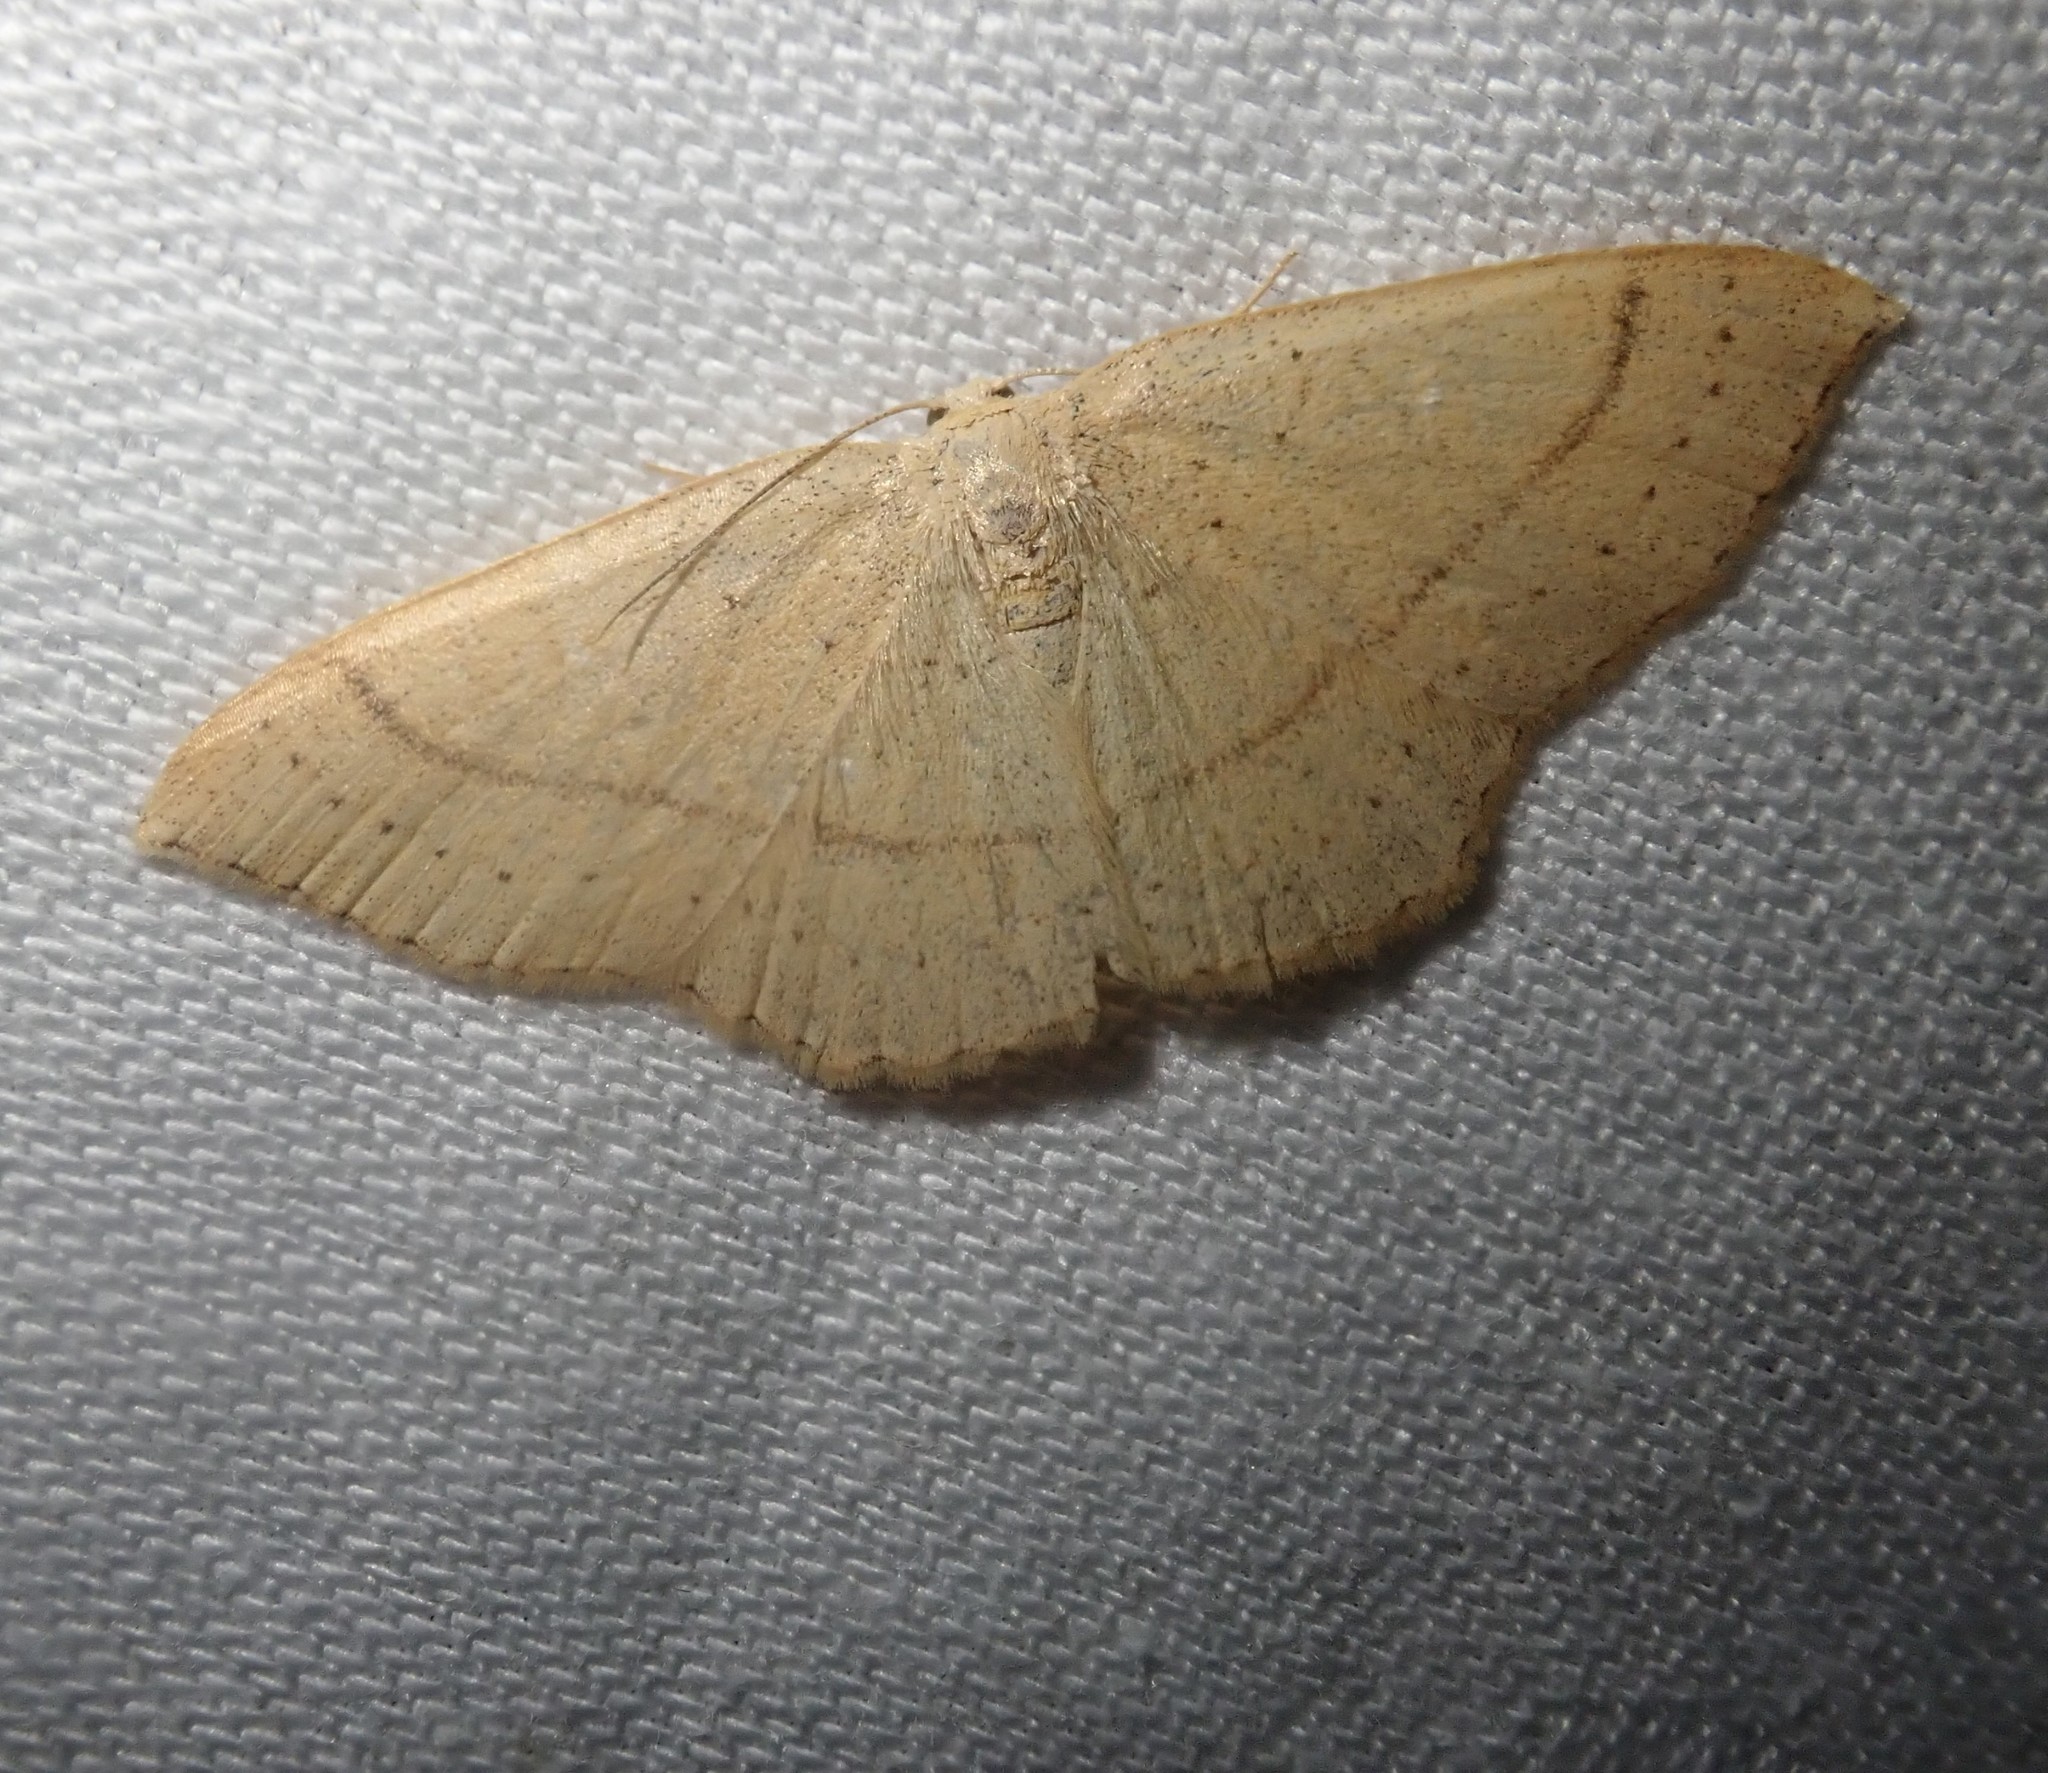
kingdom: Animalia
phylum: Arthropoda
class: Insecta
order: Lepidoptera
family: Geometridae
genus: Cyclophora
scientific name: Cyclophora linearia
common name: Clay triple-lines
